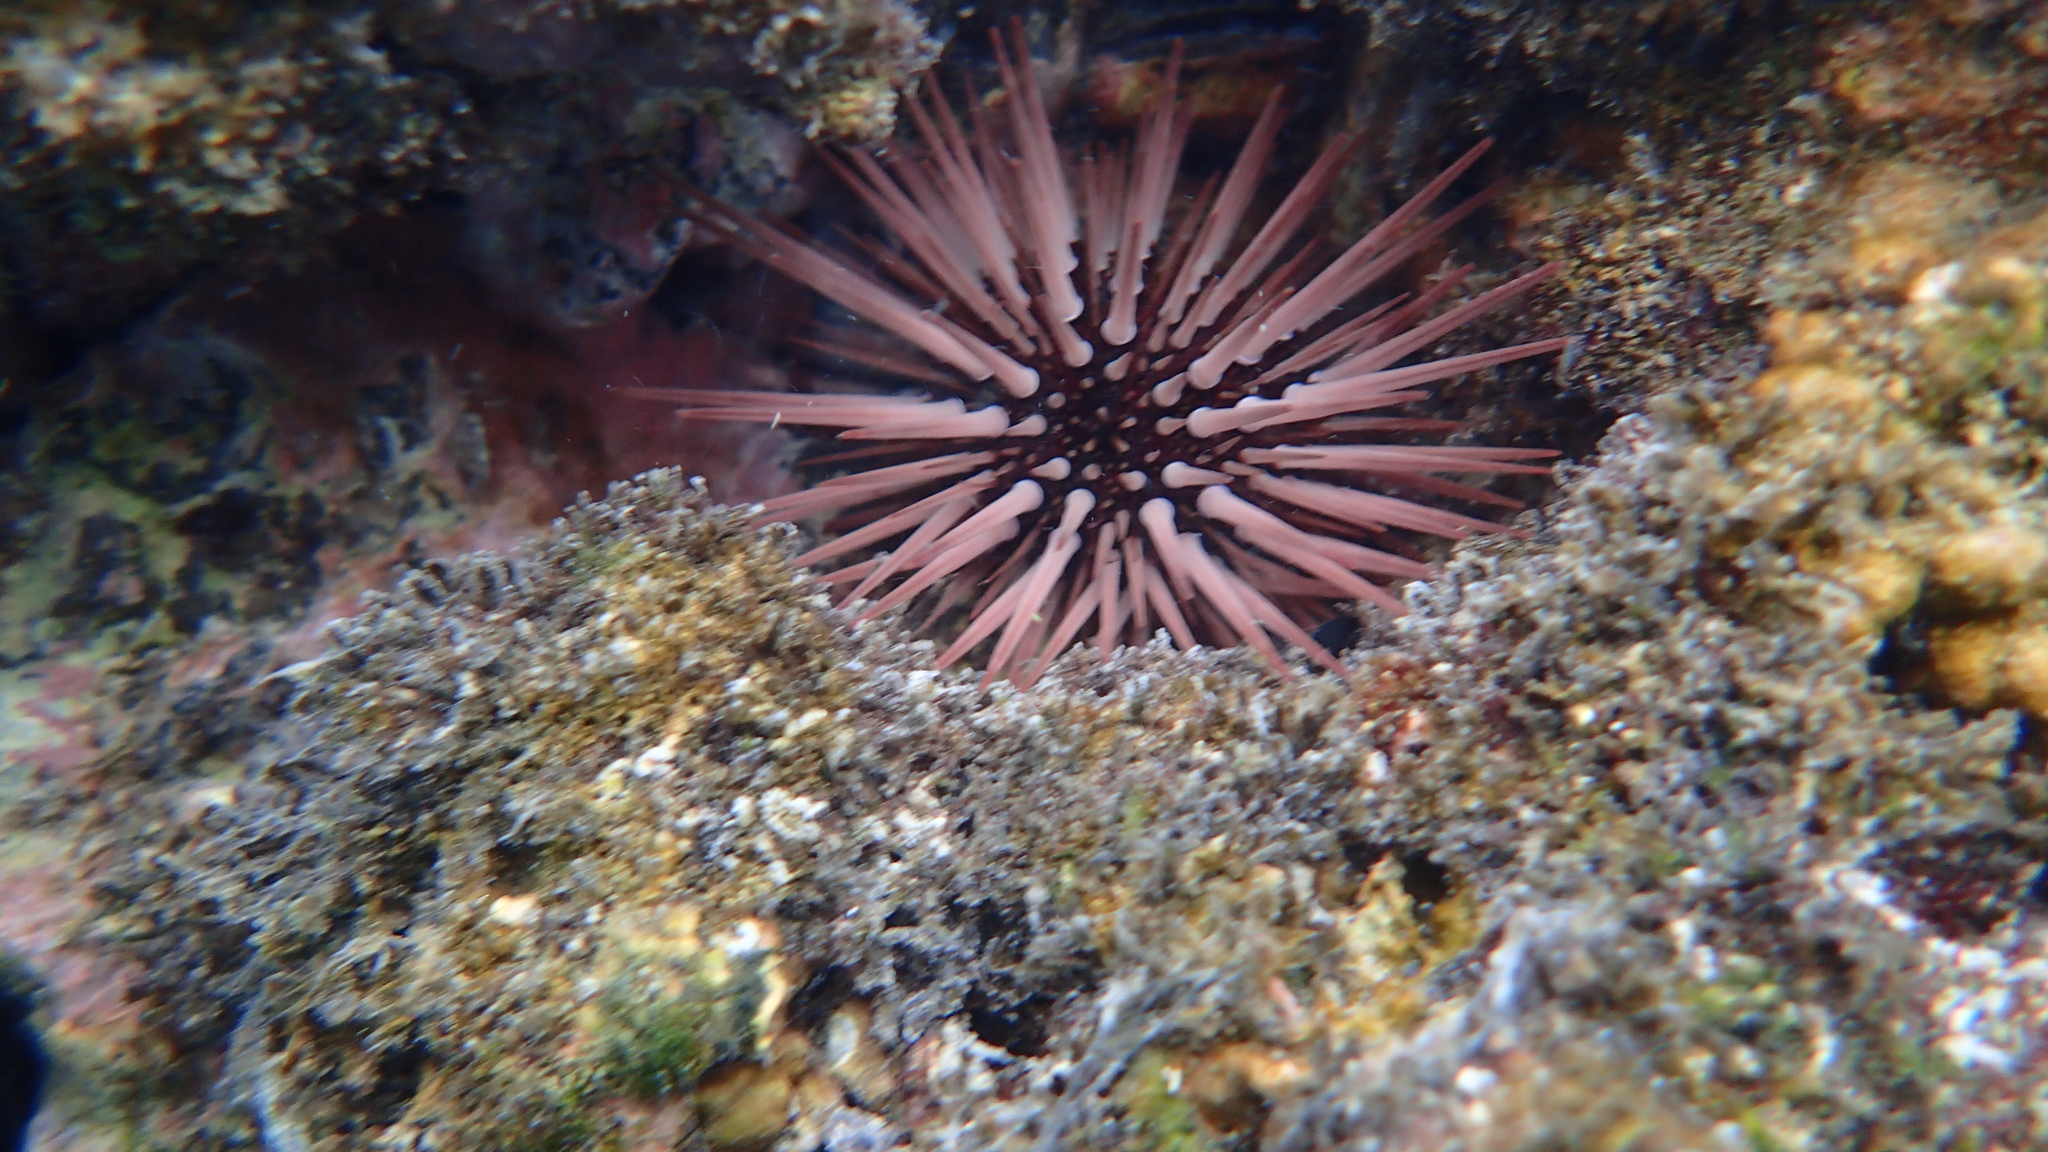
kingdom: Animalia
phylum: Echinodermata
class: Echinoidea
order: Camarodonta
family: Echinometridae
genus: Echinometra
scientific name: Echinometra mathaei
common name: Rock-boring urchin
